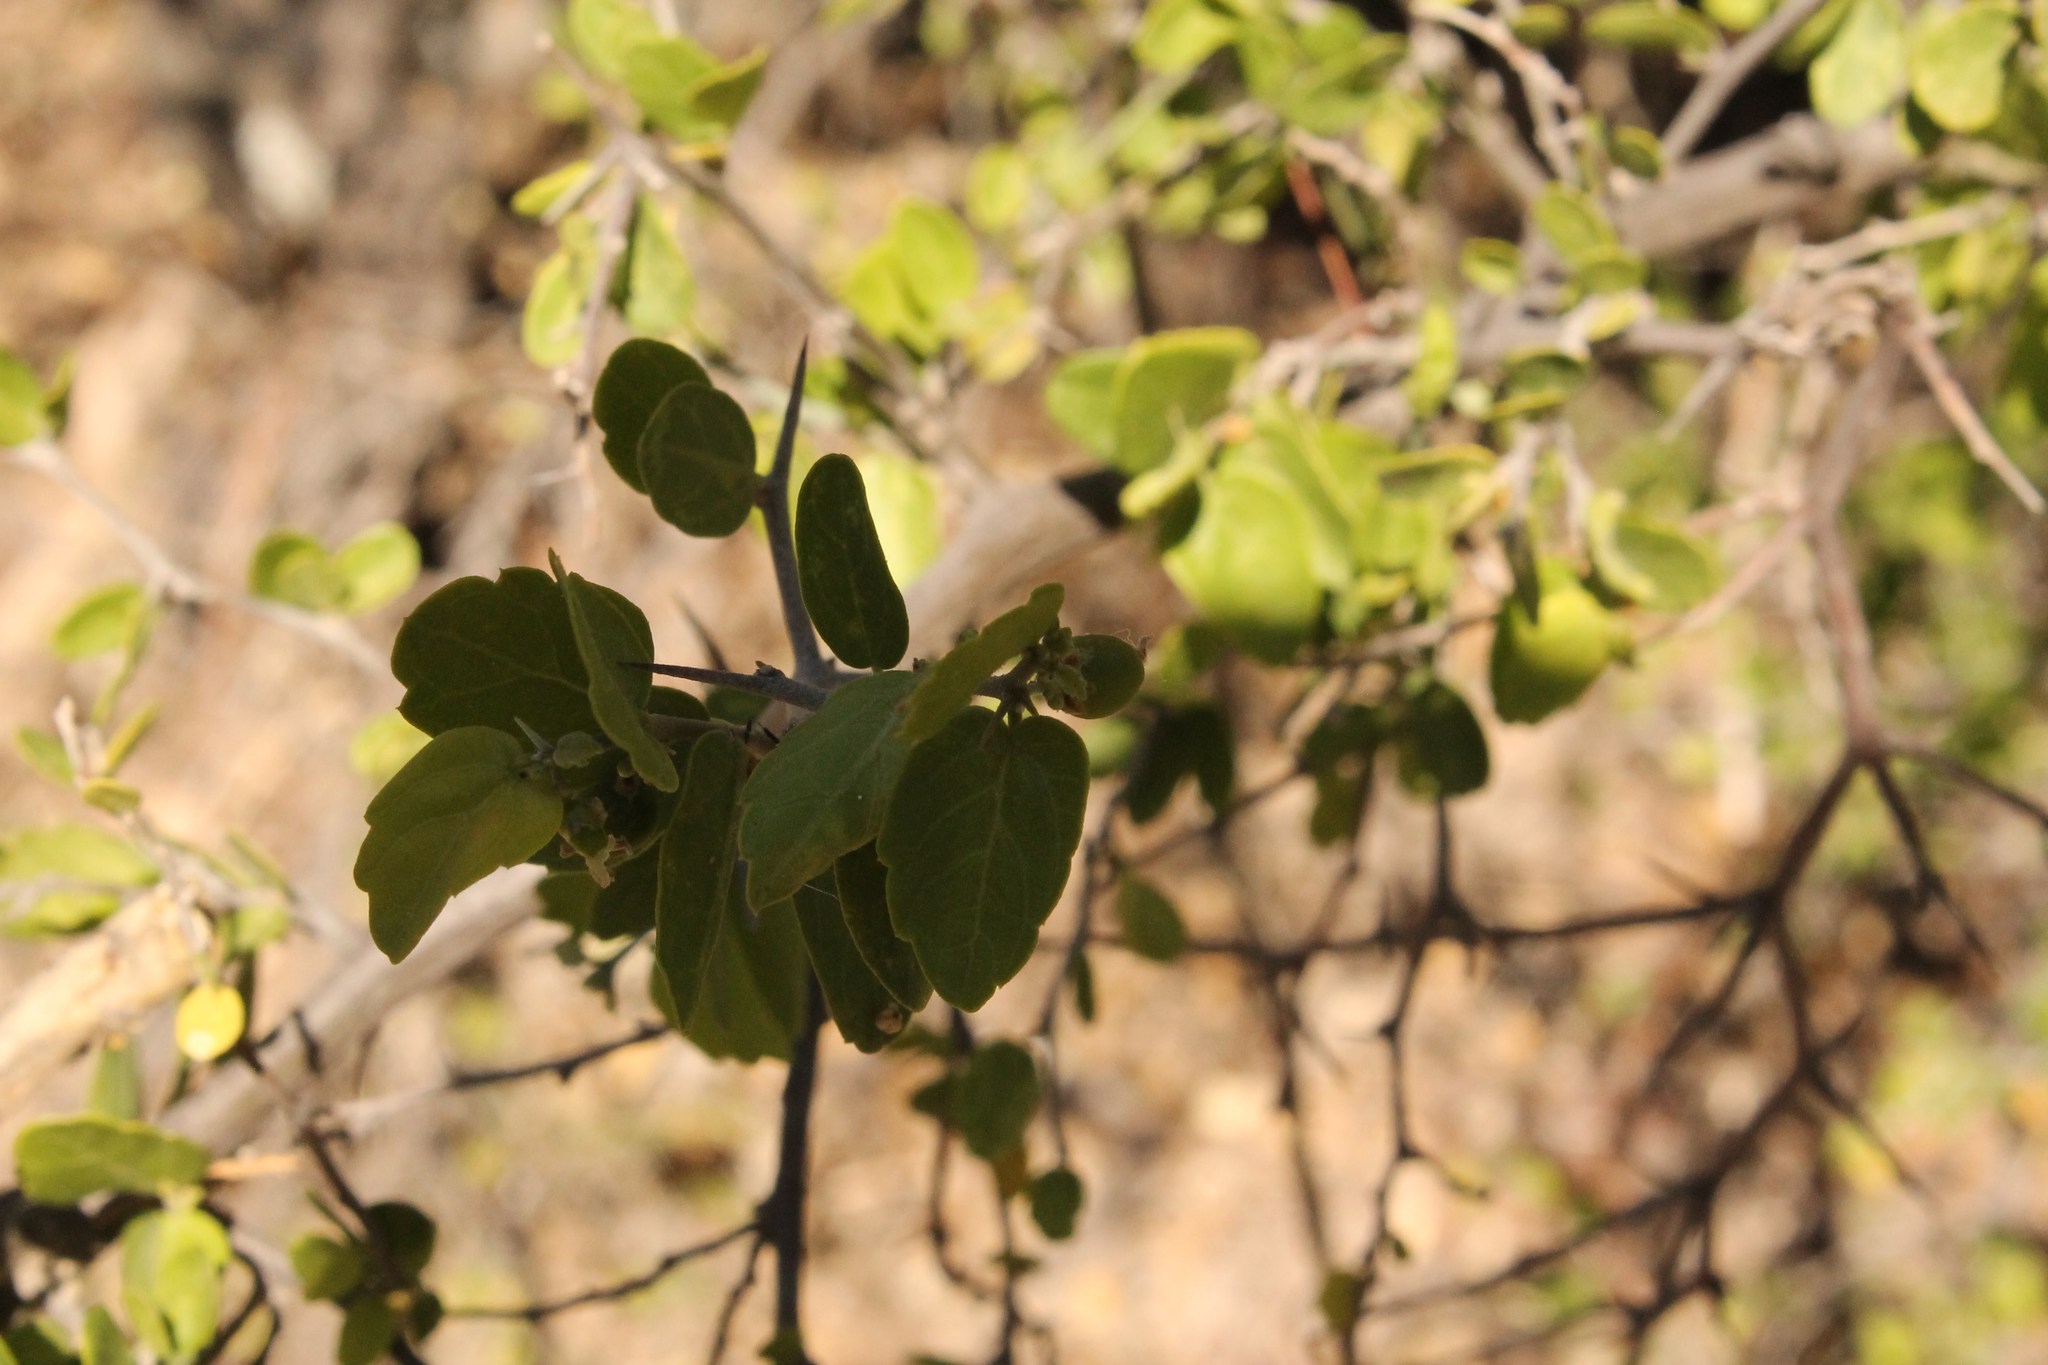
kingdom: Plantae
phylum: Tracheophyta
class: Magnoliopsida
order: Rosales
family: Cannabaceae
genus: Celtis
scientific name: Celtis pallida
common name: Desert hackberry
